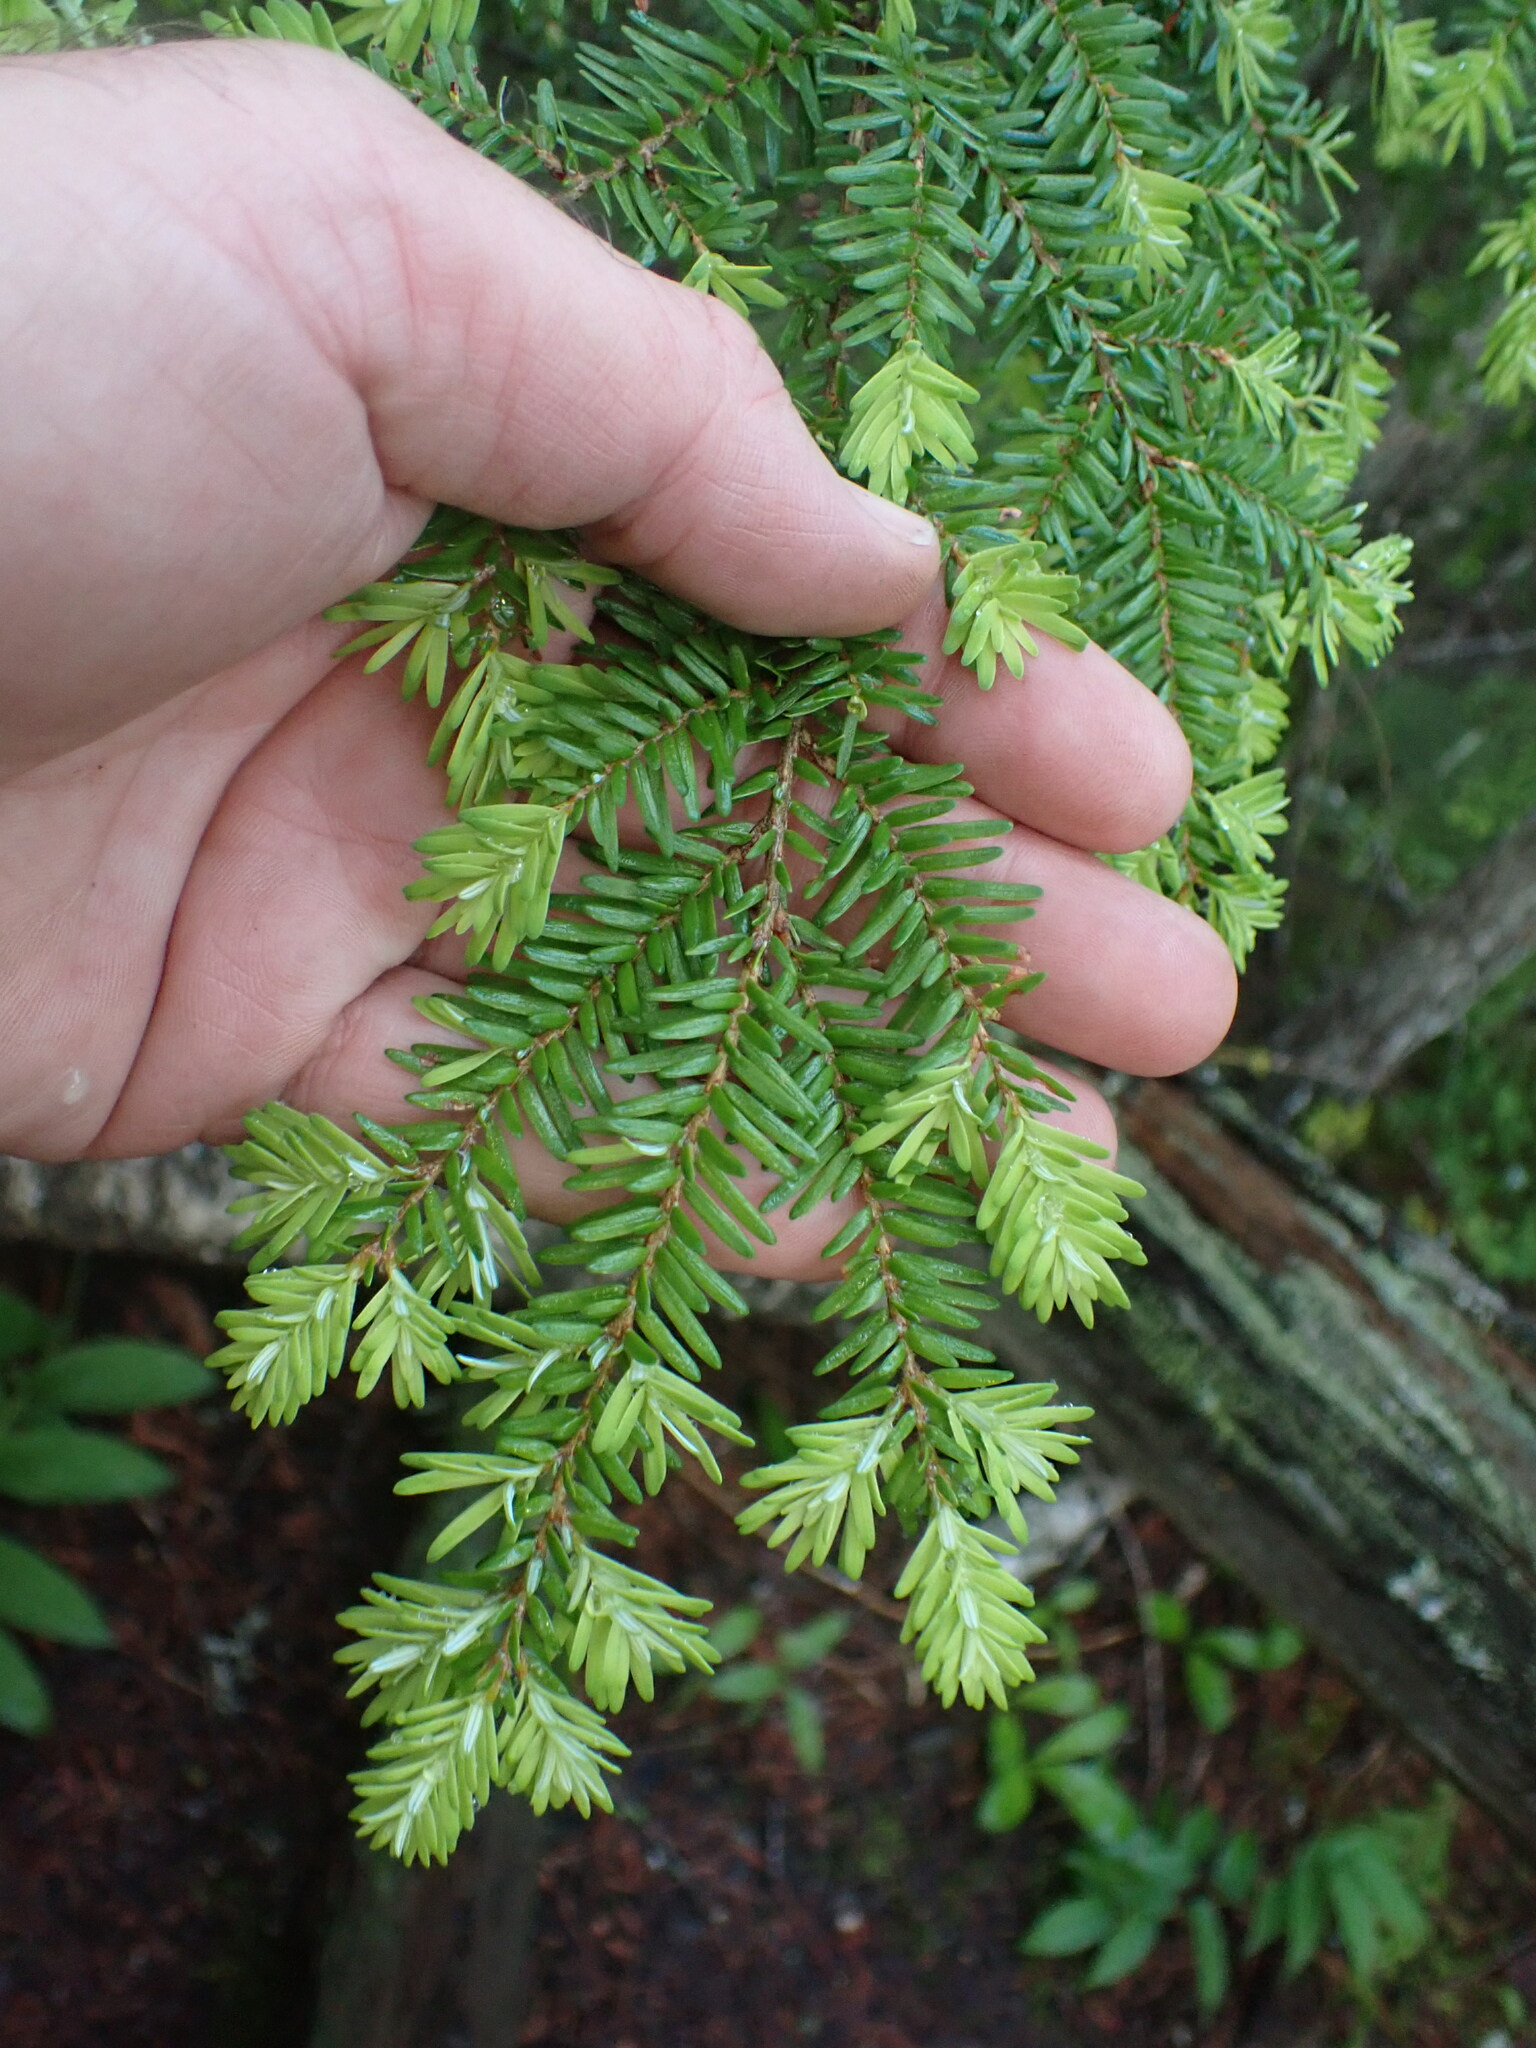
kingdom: Plantae
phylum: Tracheophyta
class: Pinopsida
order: Pinales
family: Pinaceae
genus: Tsuga
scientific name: Tsuga heterophylla
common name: Western hemlock
